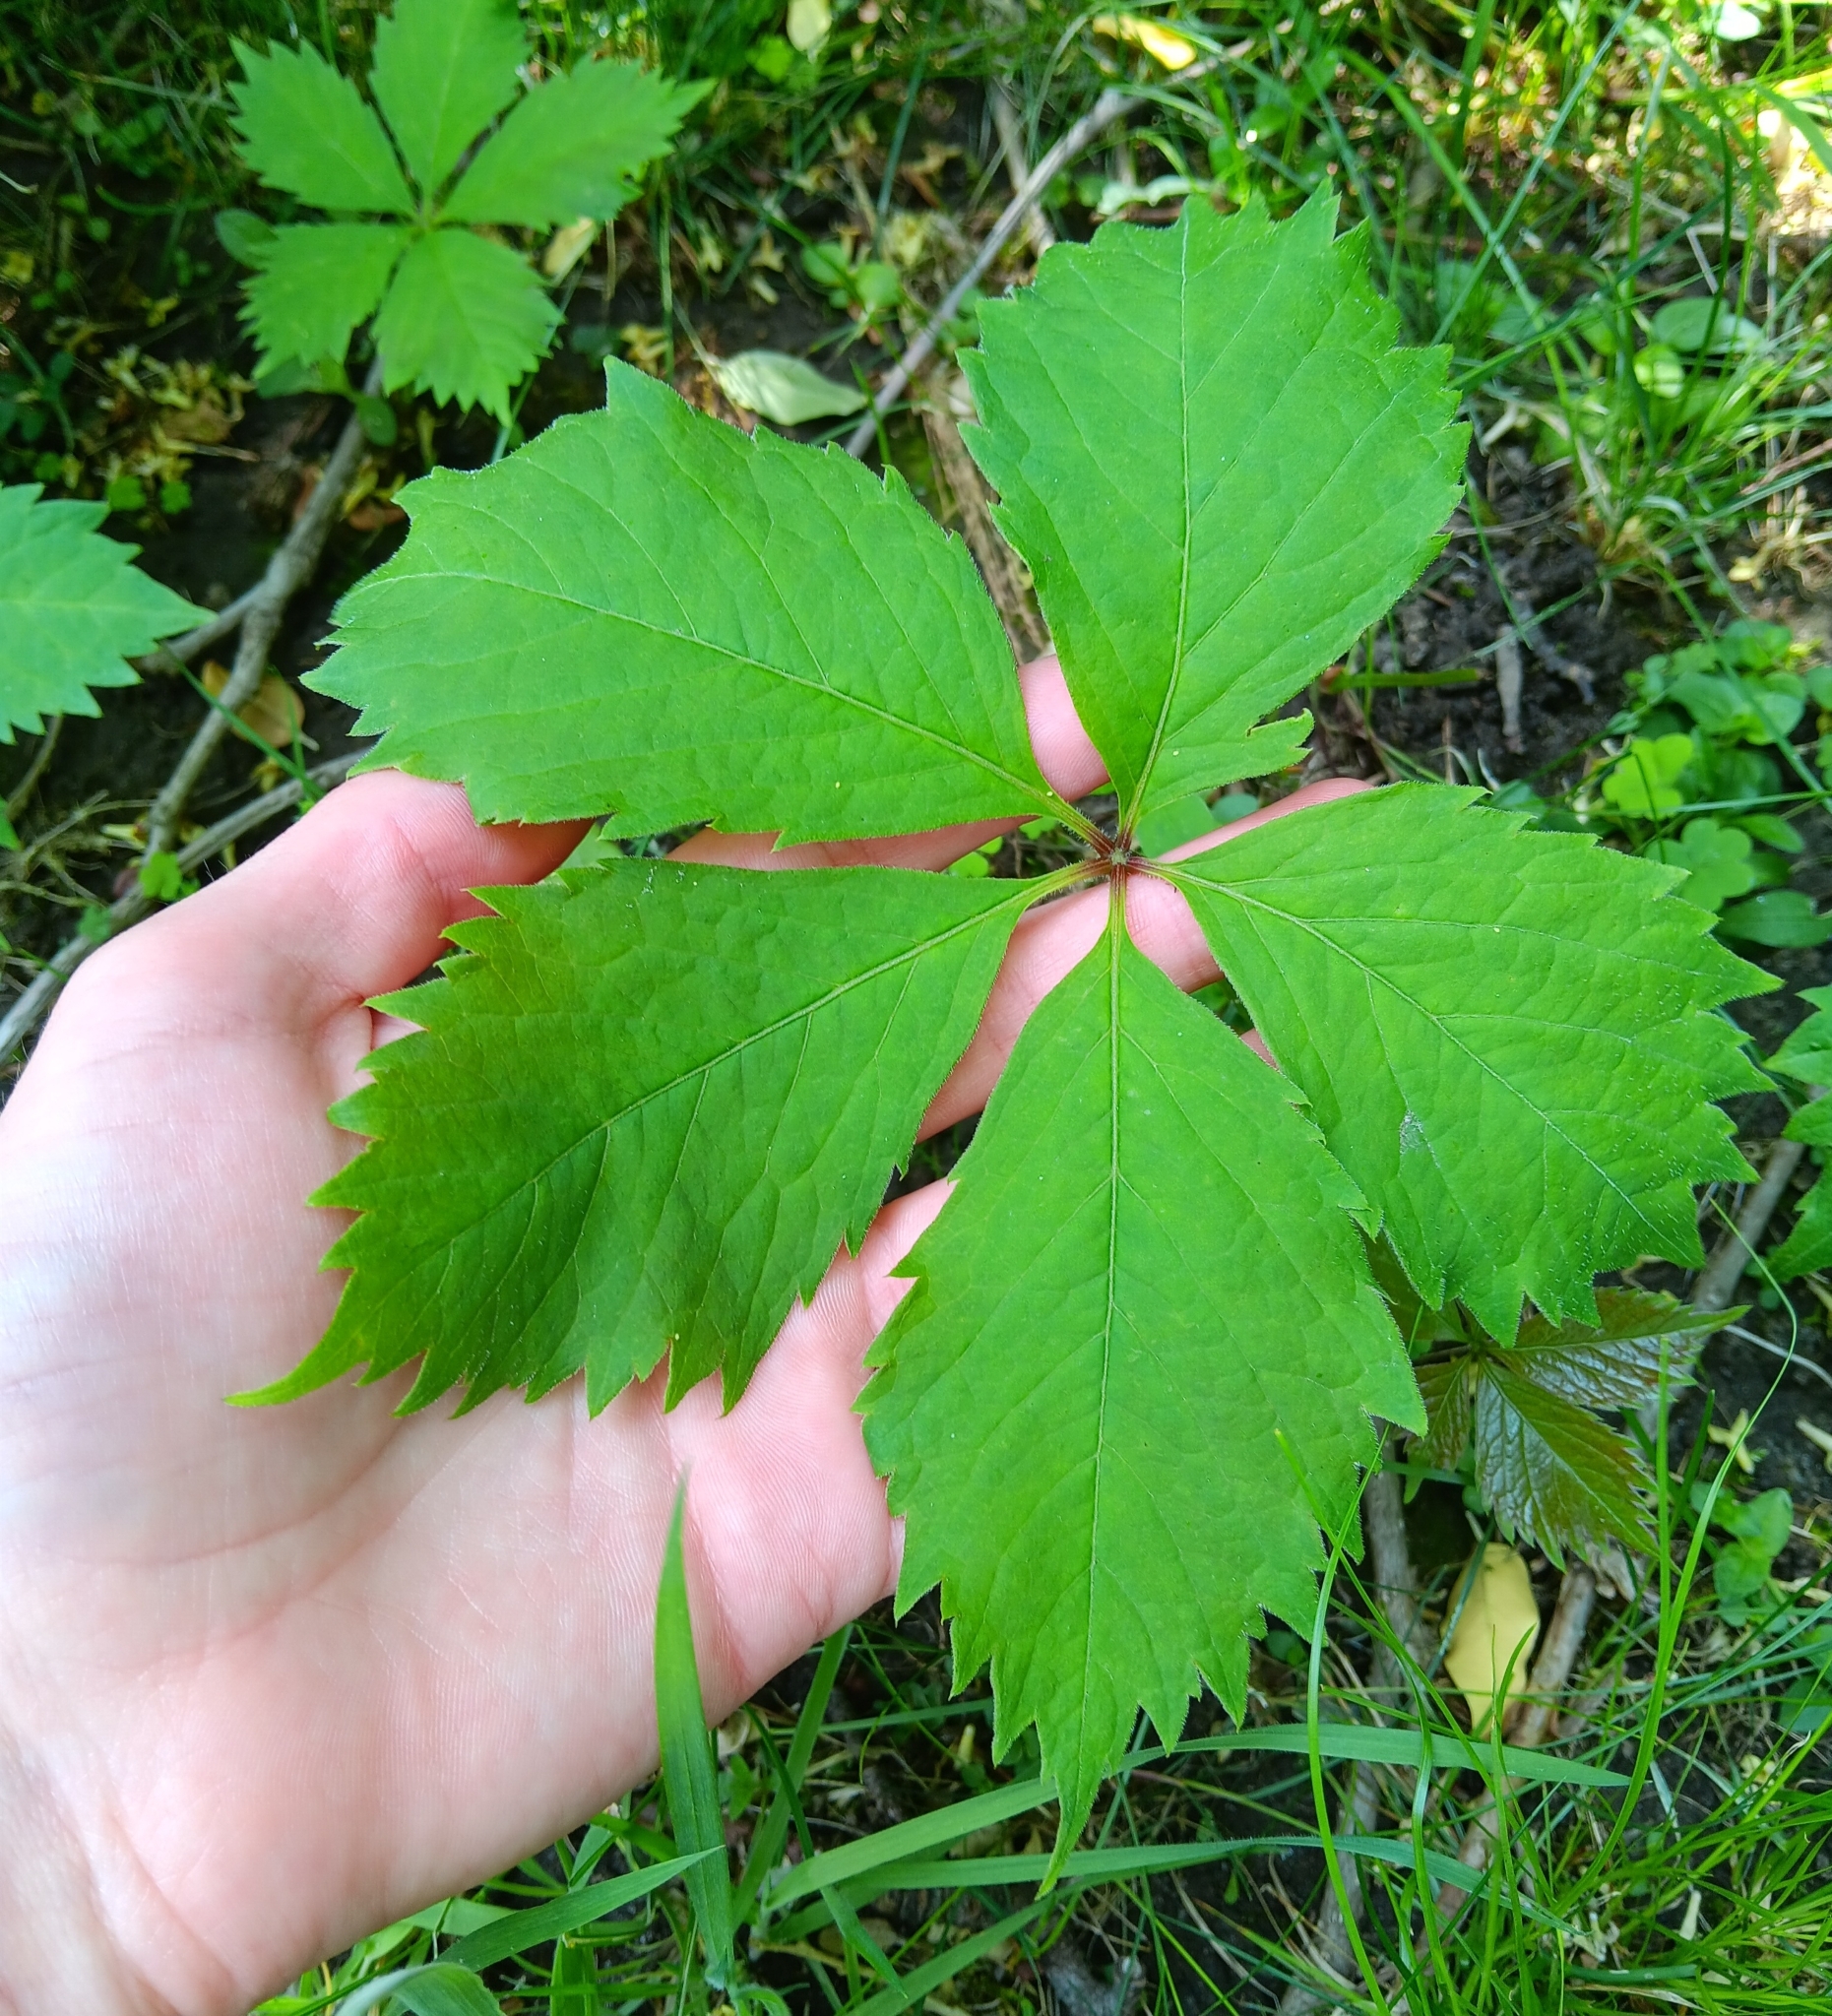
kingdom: Plantae
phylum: Tracheophyta
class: Magnoliopsida
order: Vitales
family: Vitaceae
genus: Parthenocissus
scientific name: Parthenocissus quinquefolia
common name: Virginia-creeper
